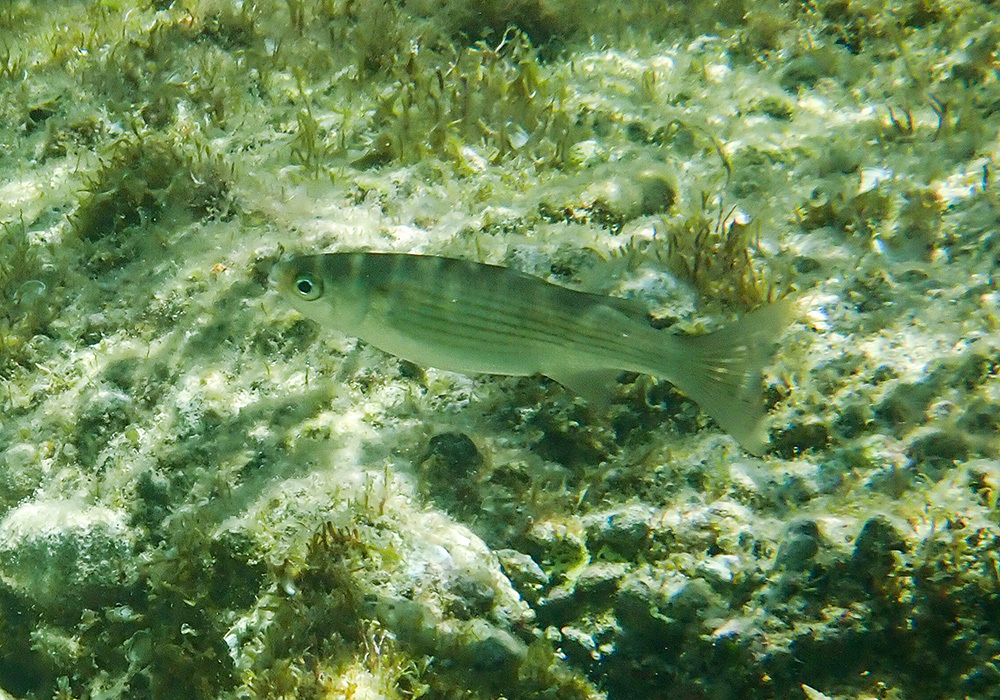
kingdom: Animalia
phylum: Chordata
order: Mugiliformes
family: Mugilidae
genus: Oedalechilus
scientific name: Oedalechilus labeo
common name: Boxlip mullet
